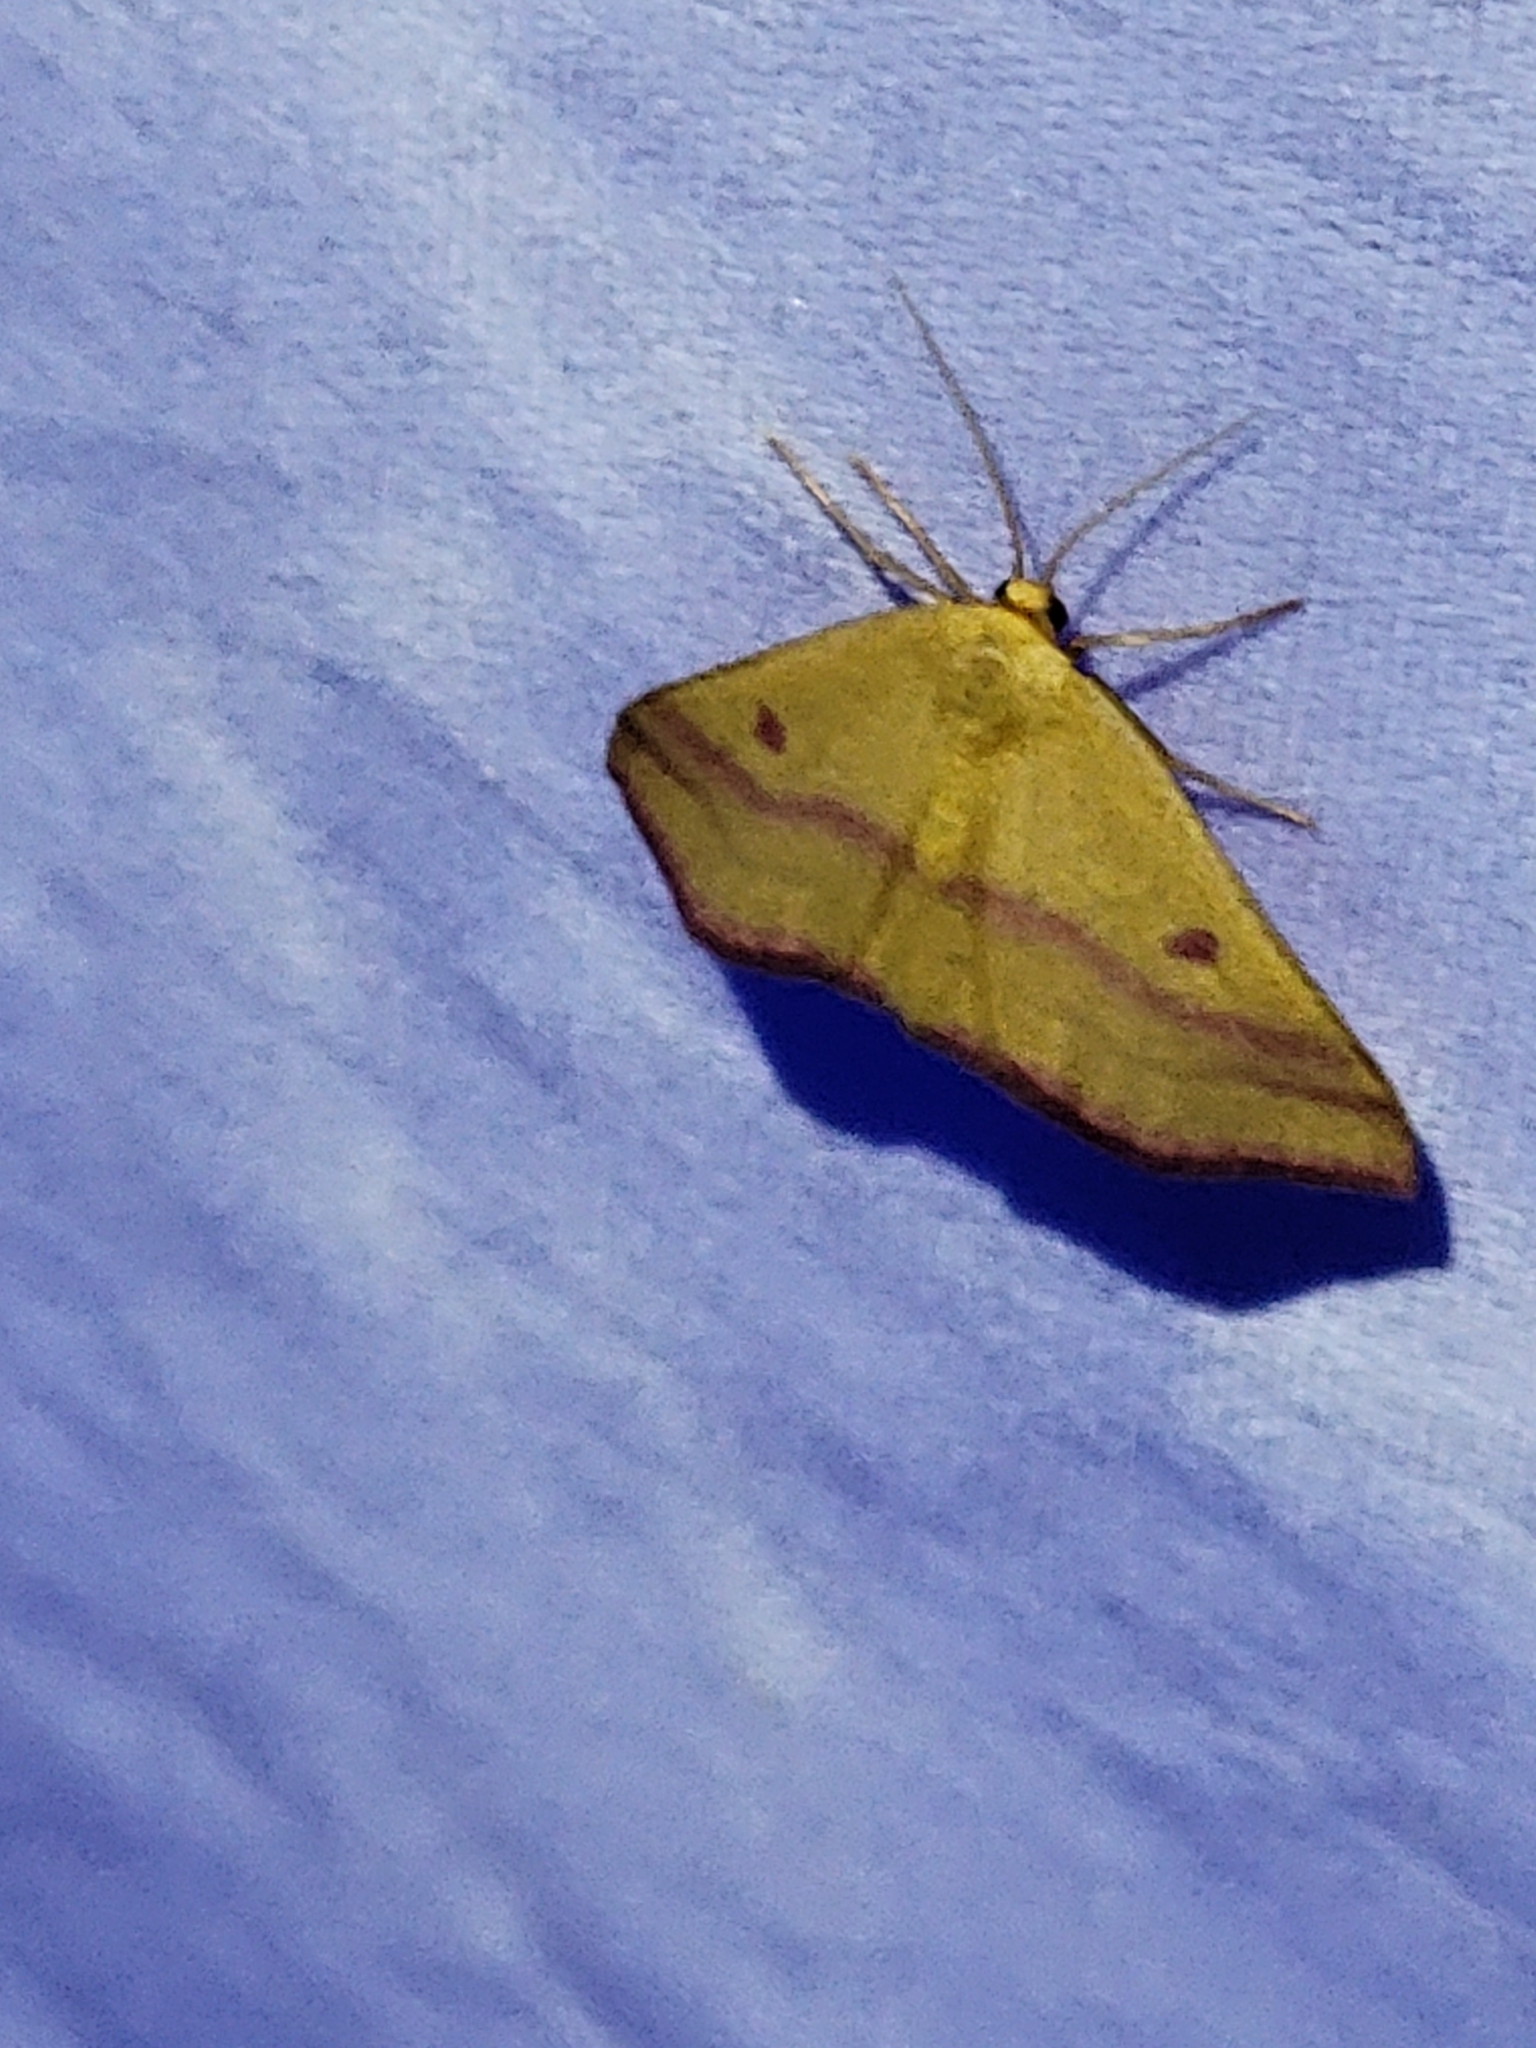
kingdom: Animalia
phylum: Arthropoda
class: Insecta
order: Lepidoptera
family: Geometridae
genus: Haematopis
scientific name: Haematopis grataria
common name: Chickweed geometer
